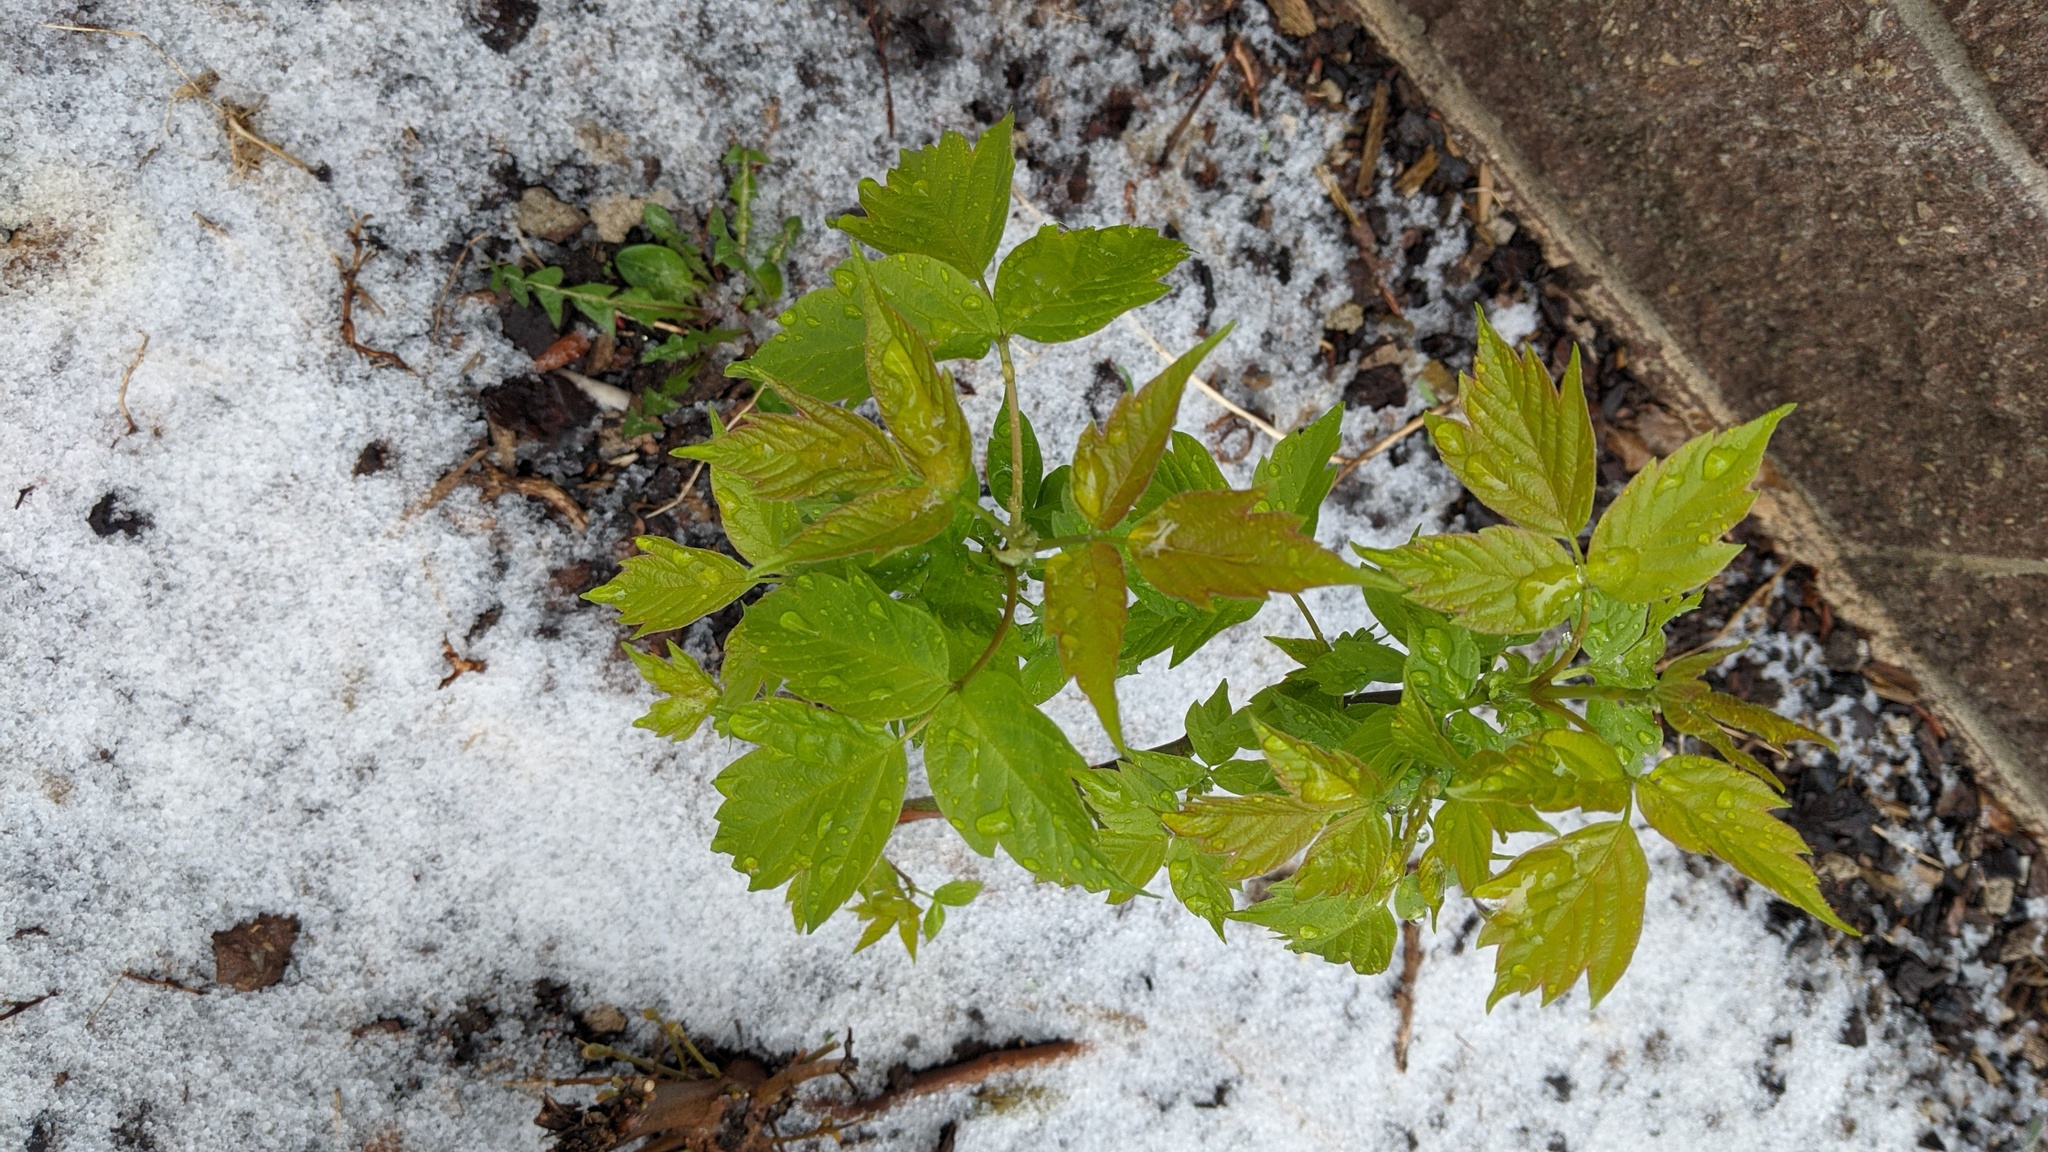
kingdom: Plantae
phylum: Tracheophyta
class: Magnoliopsida
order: Sapindales
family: Sapindaceae
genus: Acer
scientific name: Acer negundo
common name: Ashleaf maple
